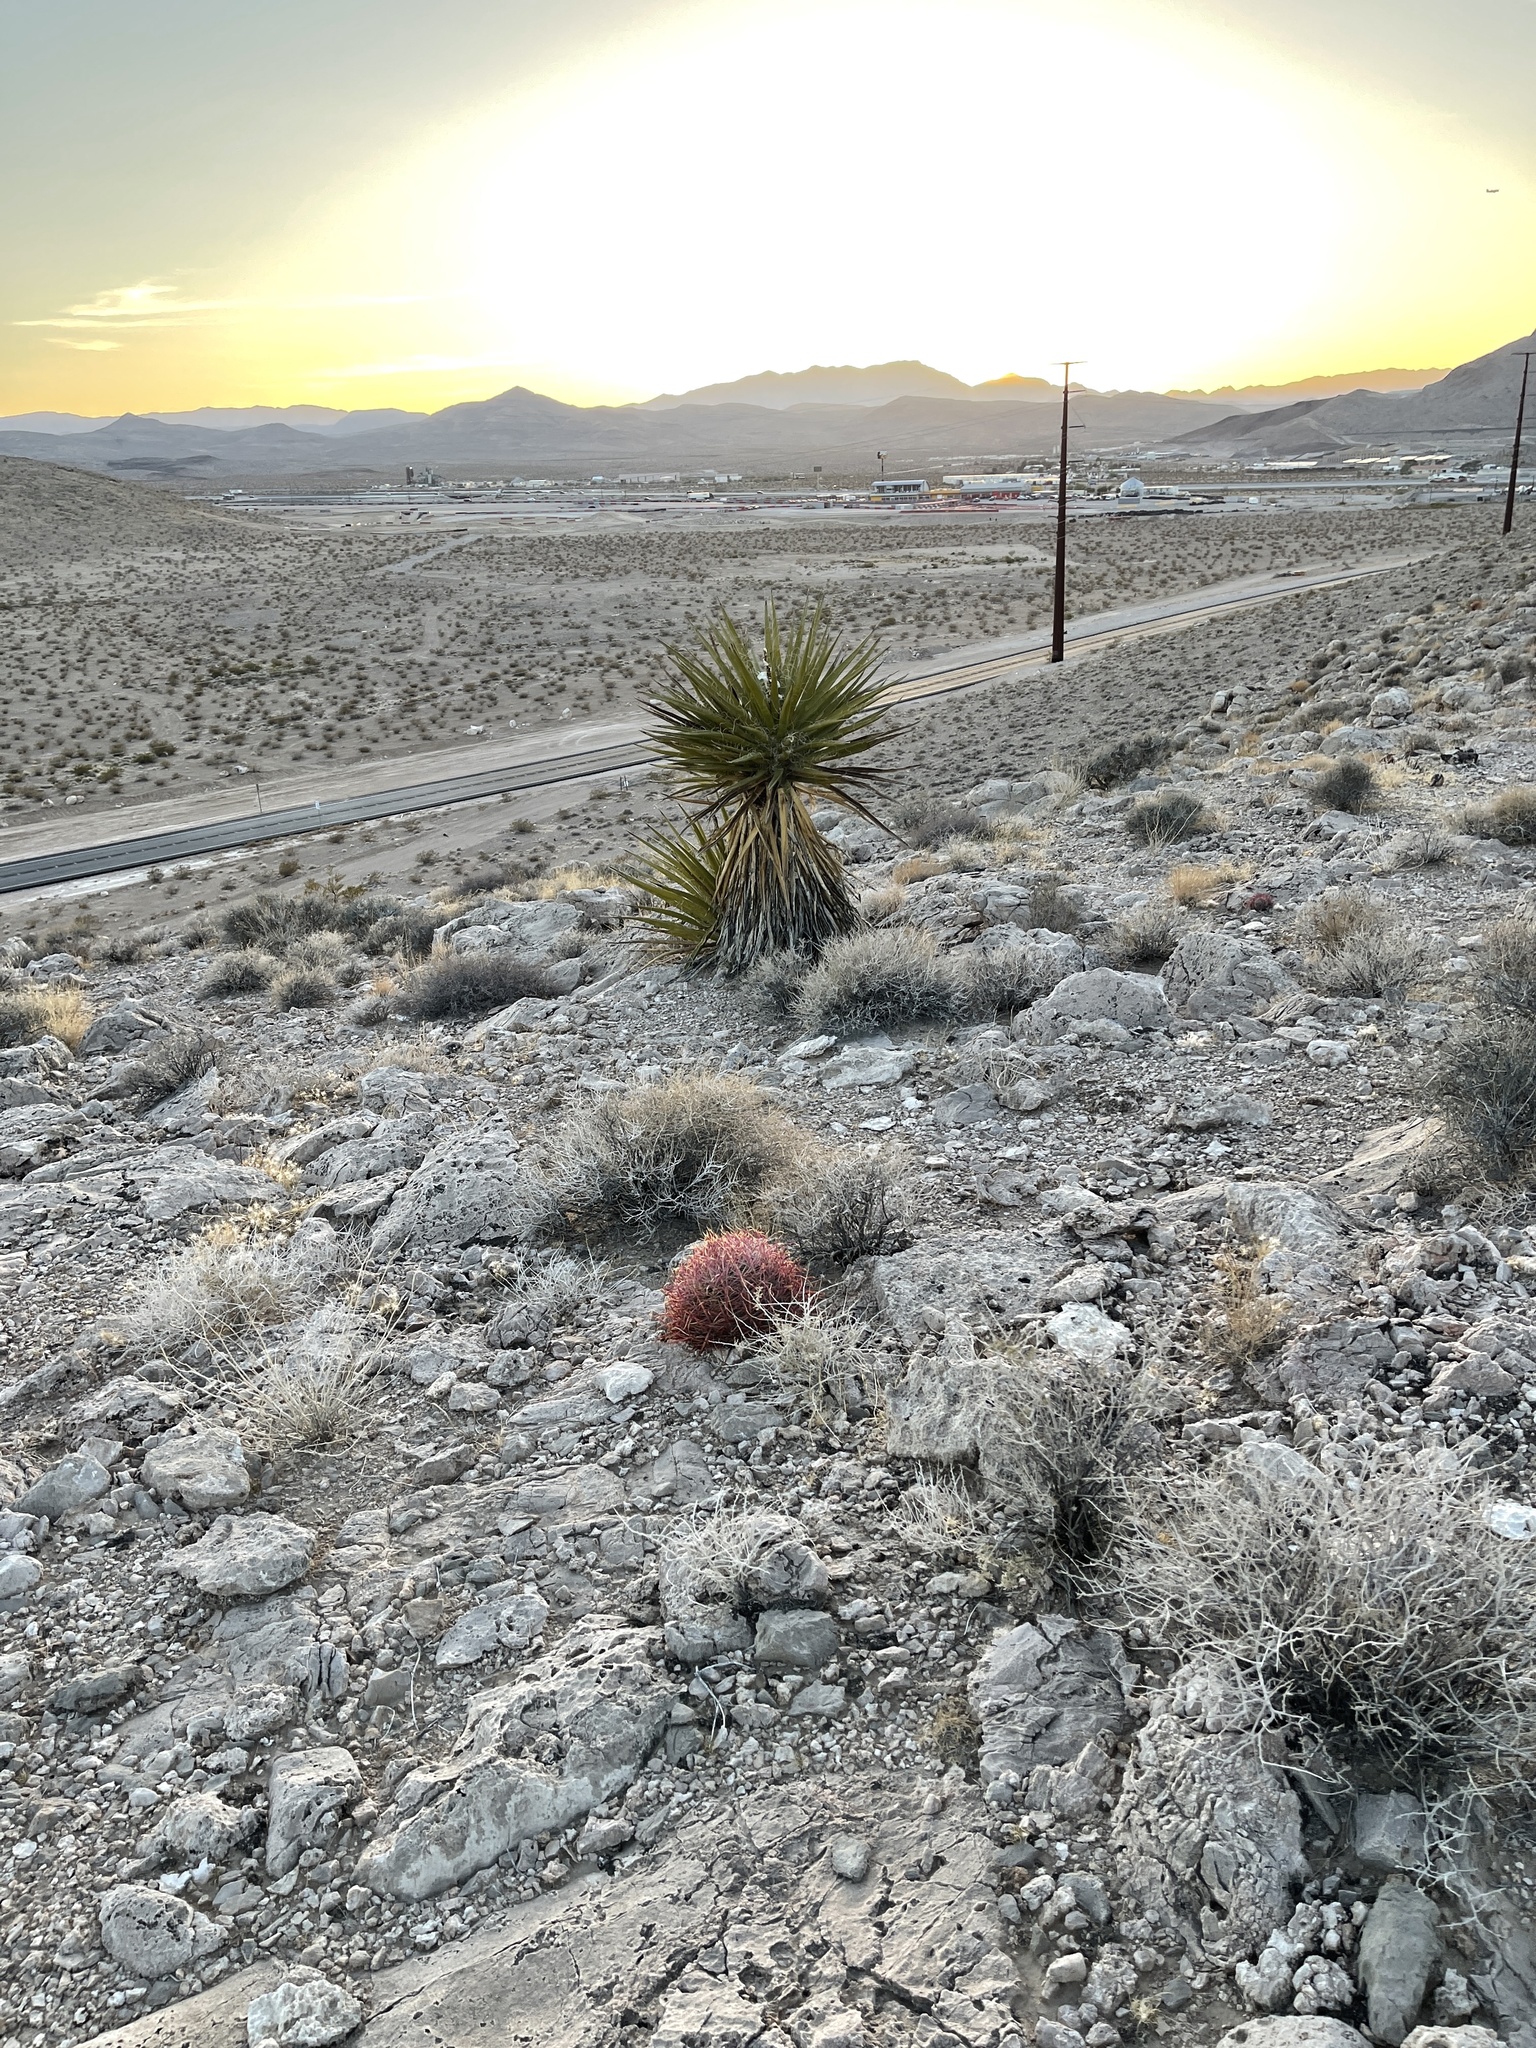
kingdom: Plantae
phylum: Tracheophyta
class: Magnoliopsida
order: Caryophyllales
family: Cactaceae
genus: Ferocactus
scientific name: Ferocactus cylindraceus
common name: California barrel cactus
